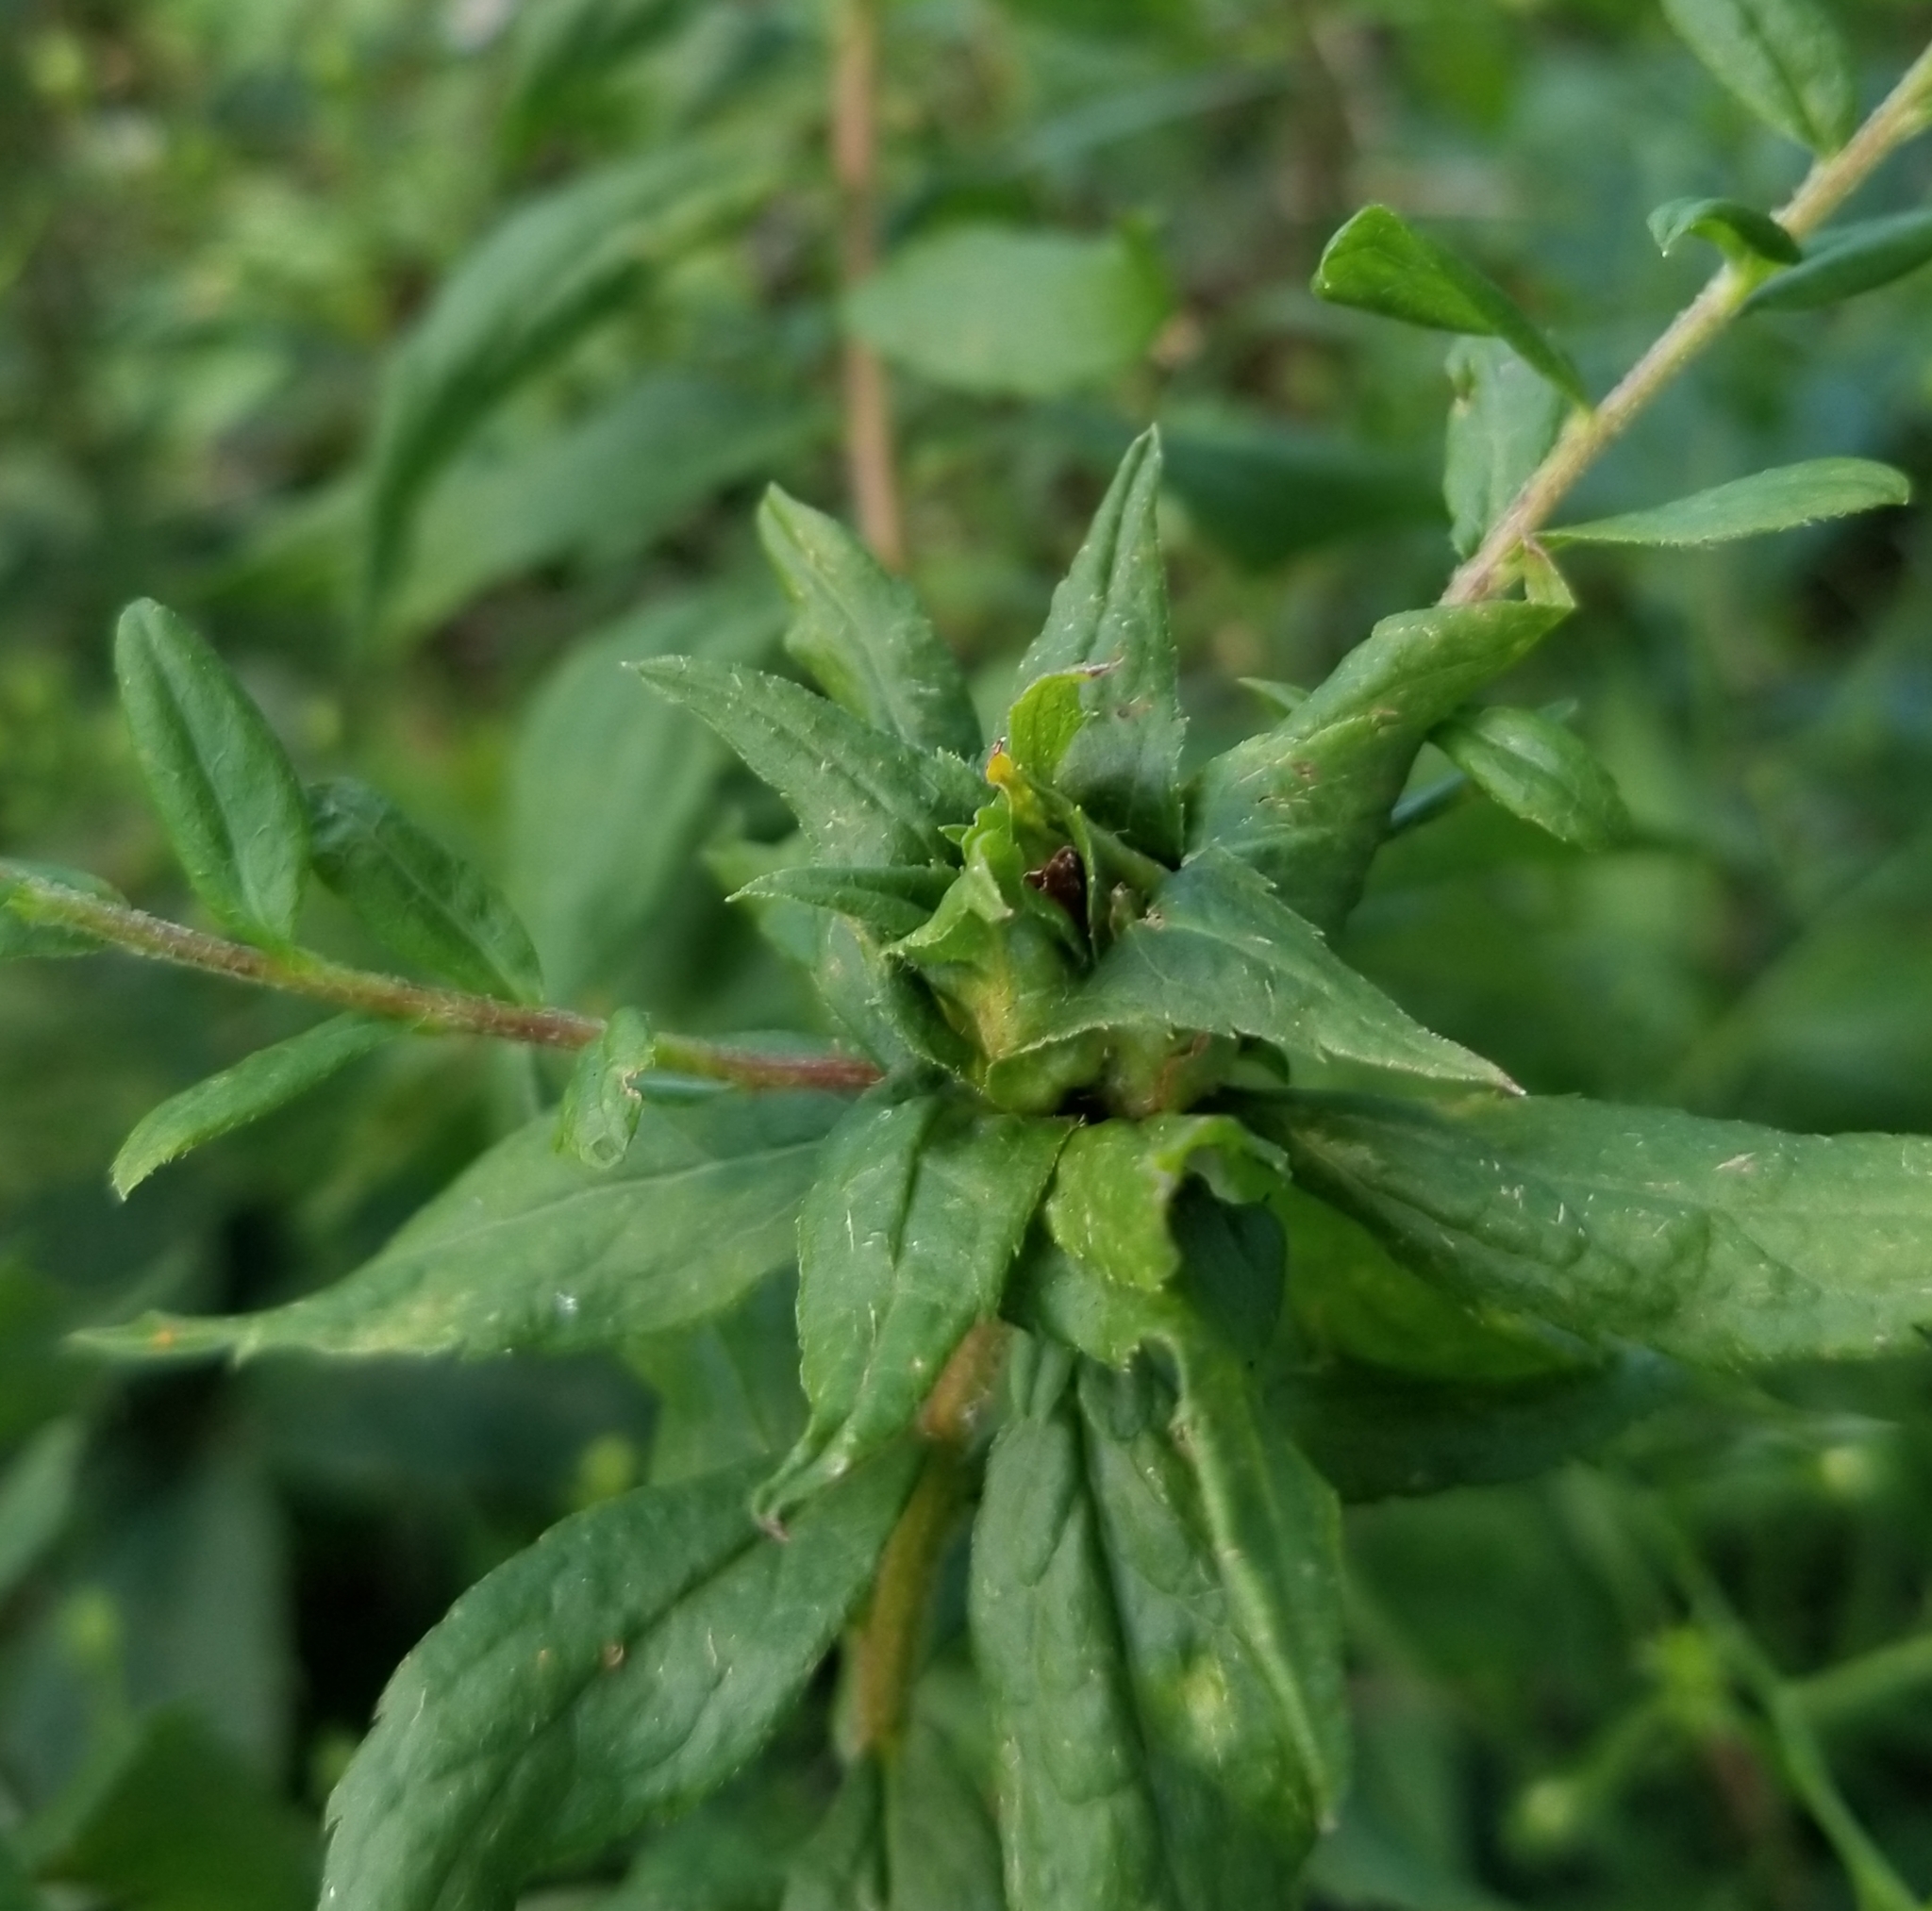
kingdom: Animalia
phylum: Arthropoda
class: Insecta
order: Diptera
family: Cecidomyiidae
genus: Dasineura
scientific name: Dasineura folliculi
